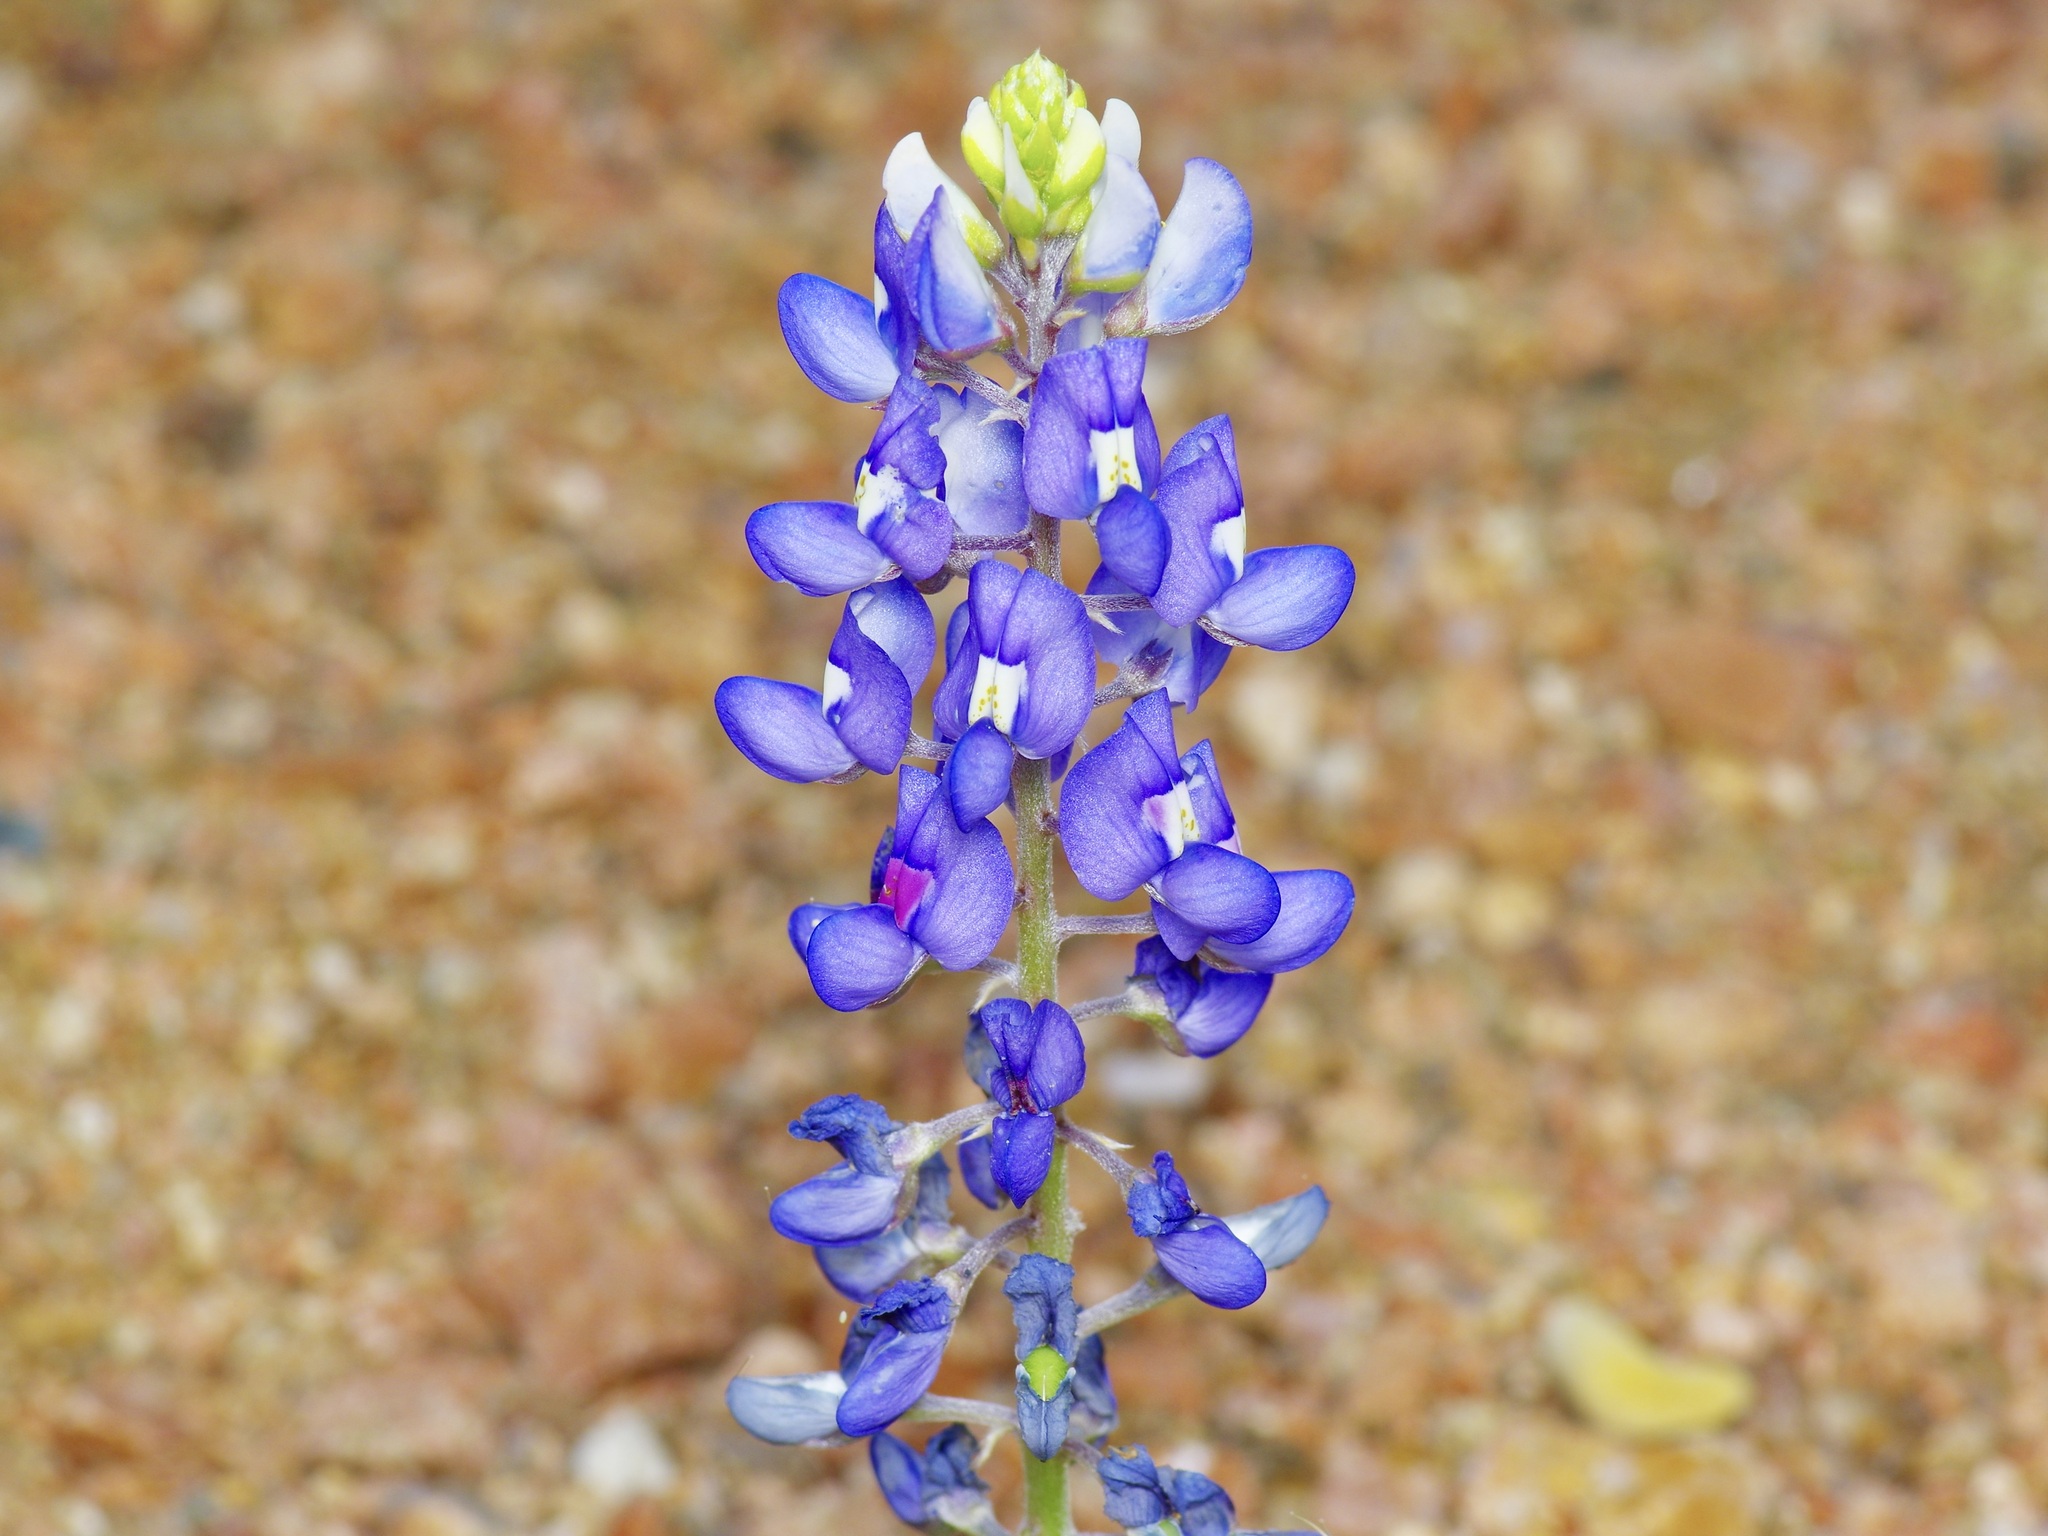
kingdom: Plantae
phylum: Tracheophyta
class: Magnoliopsida
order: Fabales
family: Fabaceae
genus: Lupinus
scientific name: Lupinus texensis
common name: Texas bluebonnet
